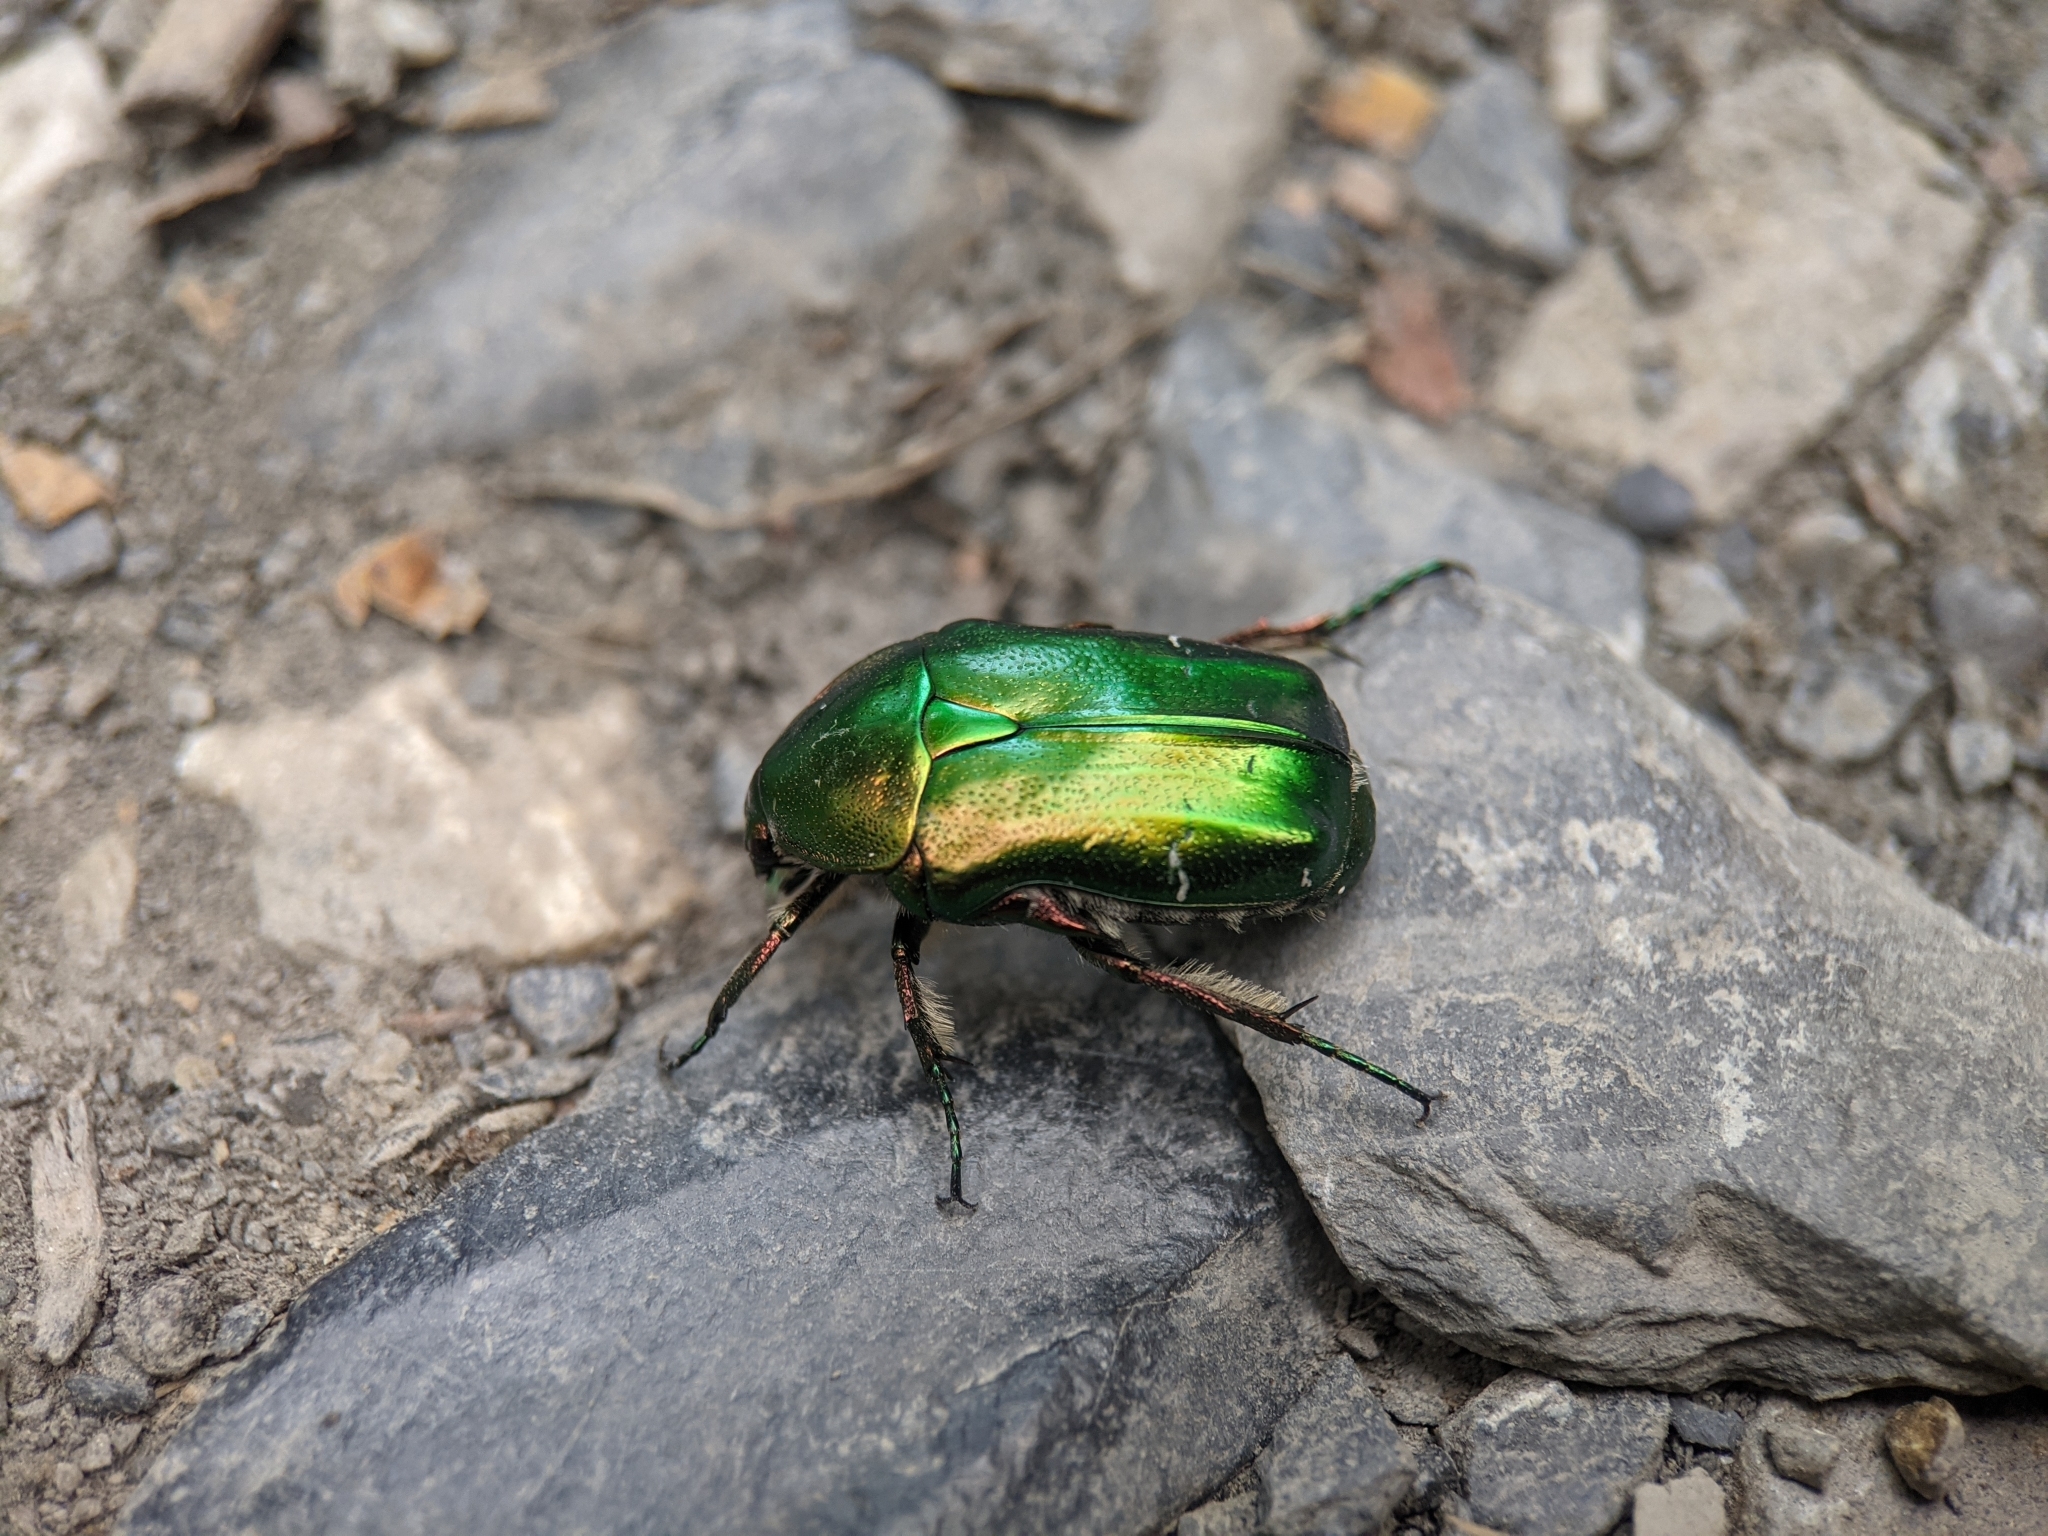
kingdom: Animalia
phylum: Arthropoda
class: Insecta
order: Coleoptera
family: Scarabaeidae
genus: Cetonia
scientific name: Cetonia aurata
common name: Rose chafer
